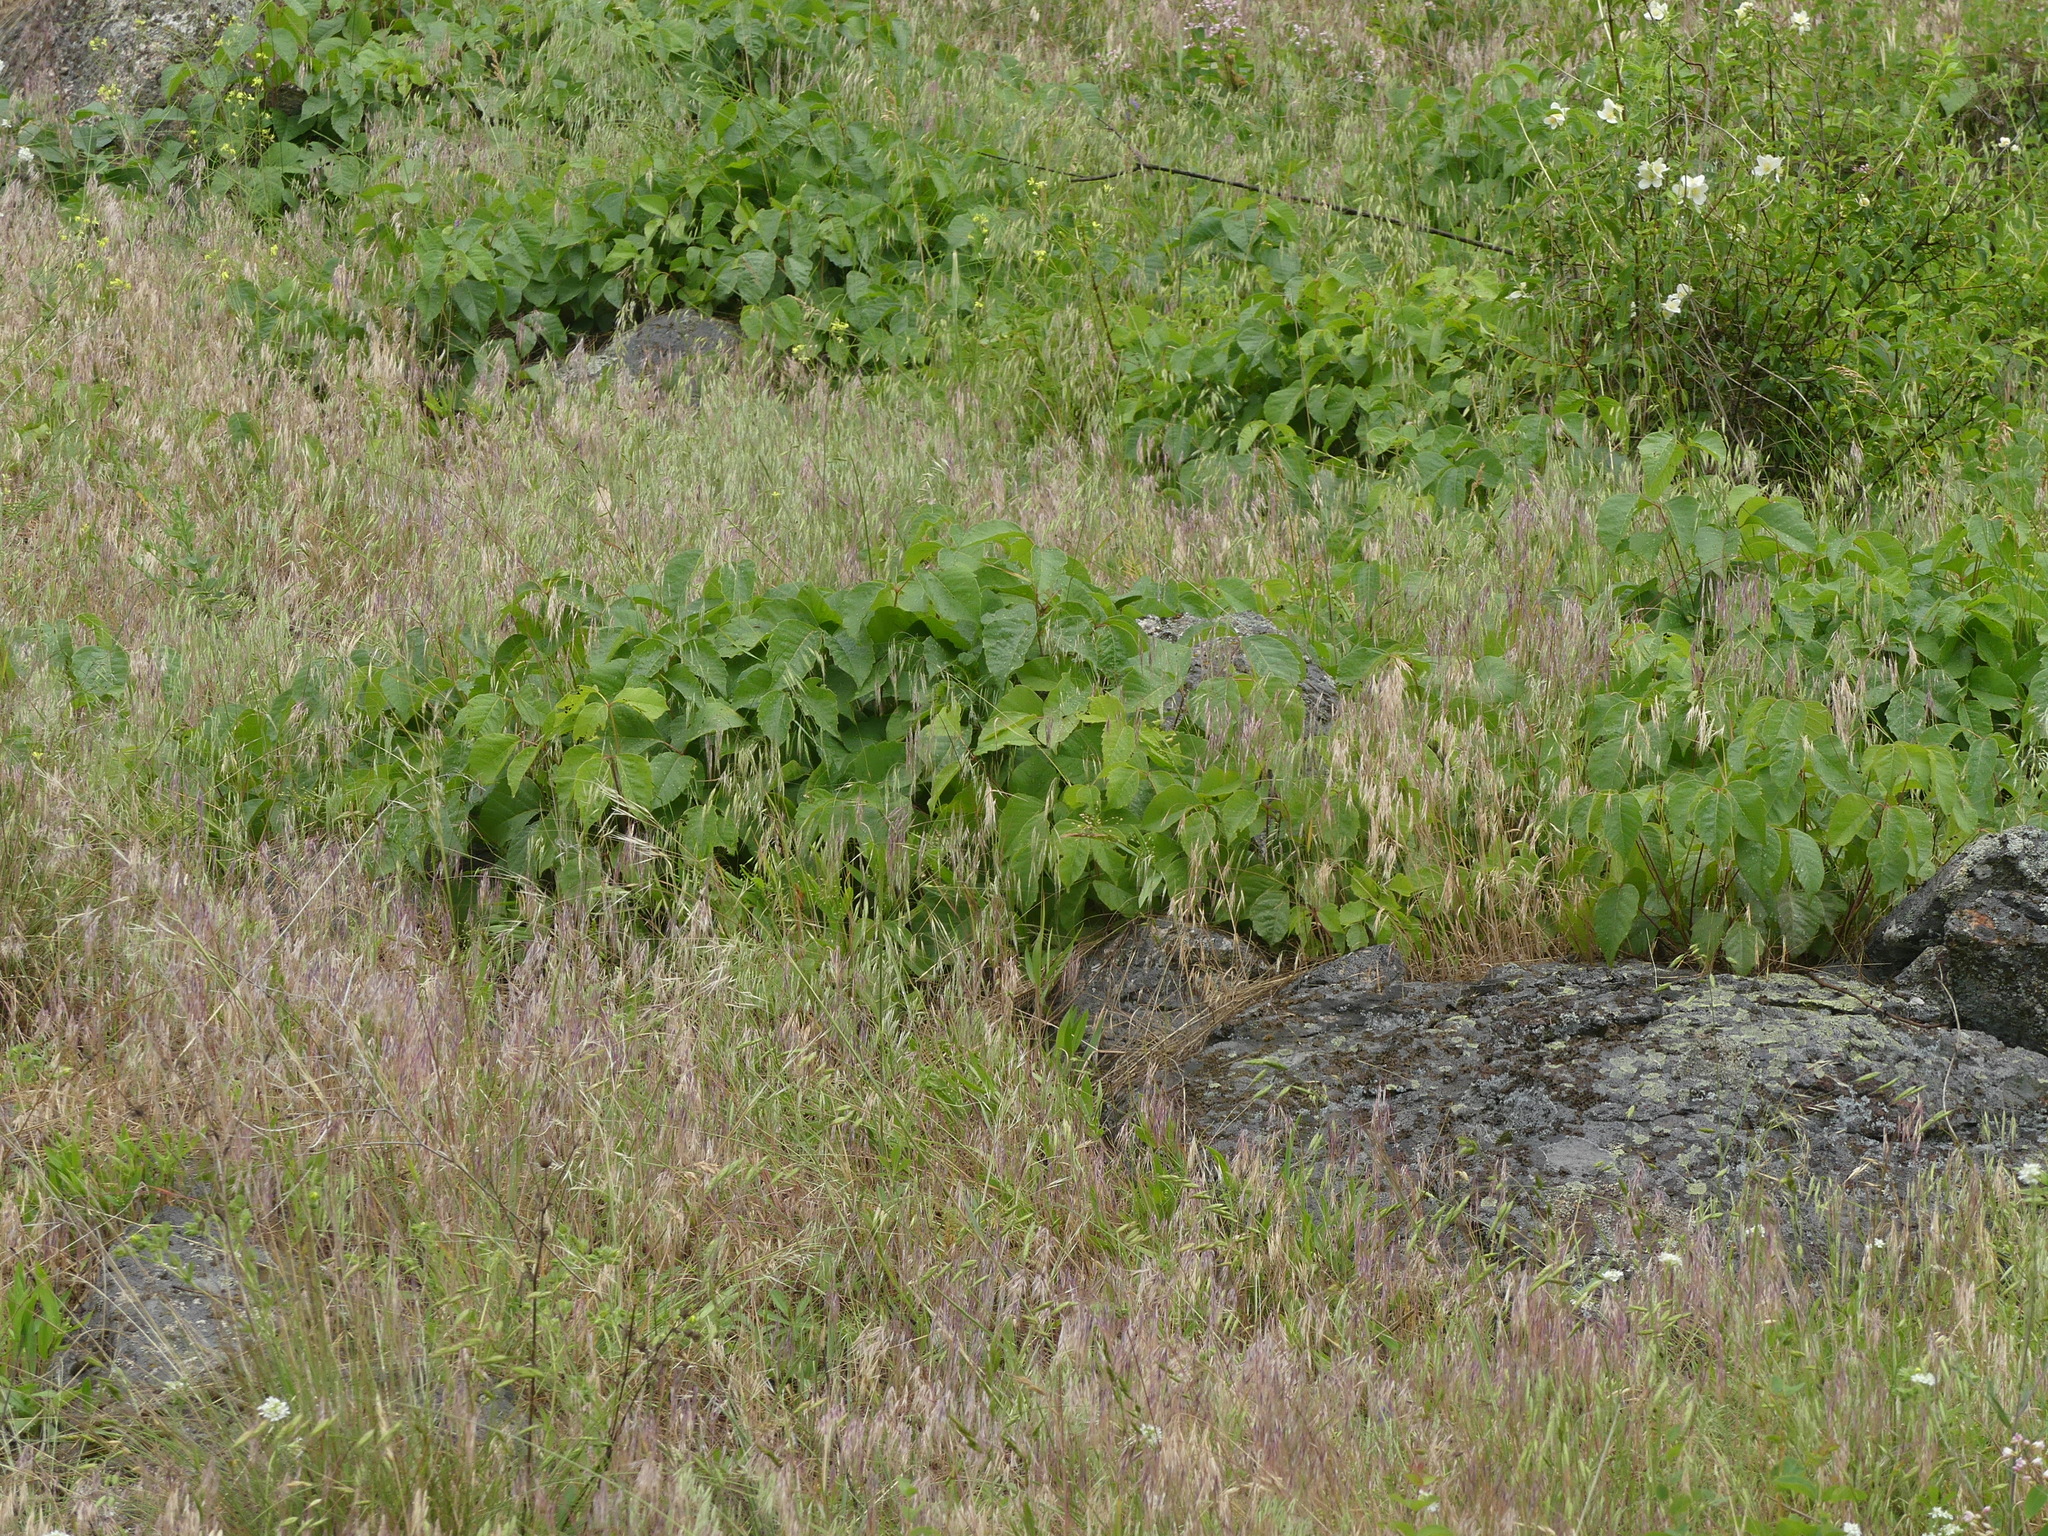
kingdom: Plantae
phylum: Tracheophyta
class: Magnoliopsida
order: Sapindales
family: Anacardiaceae
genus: Toxicodendron
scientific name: Toxicodendron rydbergii
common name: Rydberg's poison-ivy
